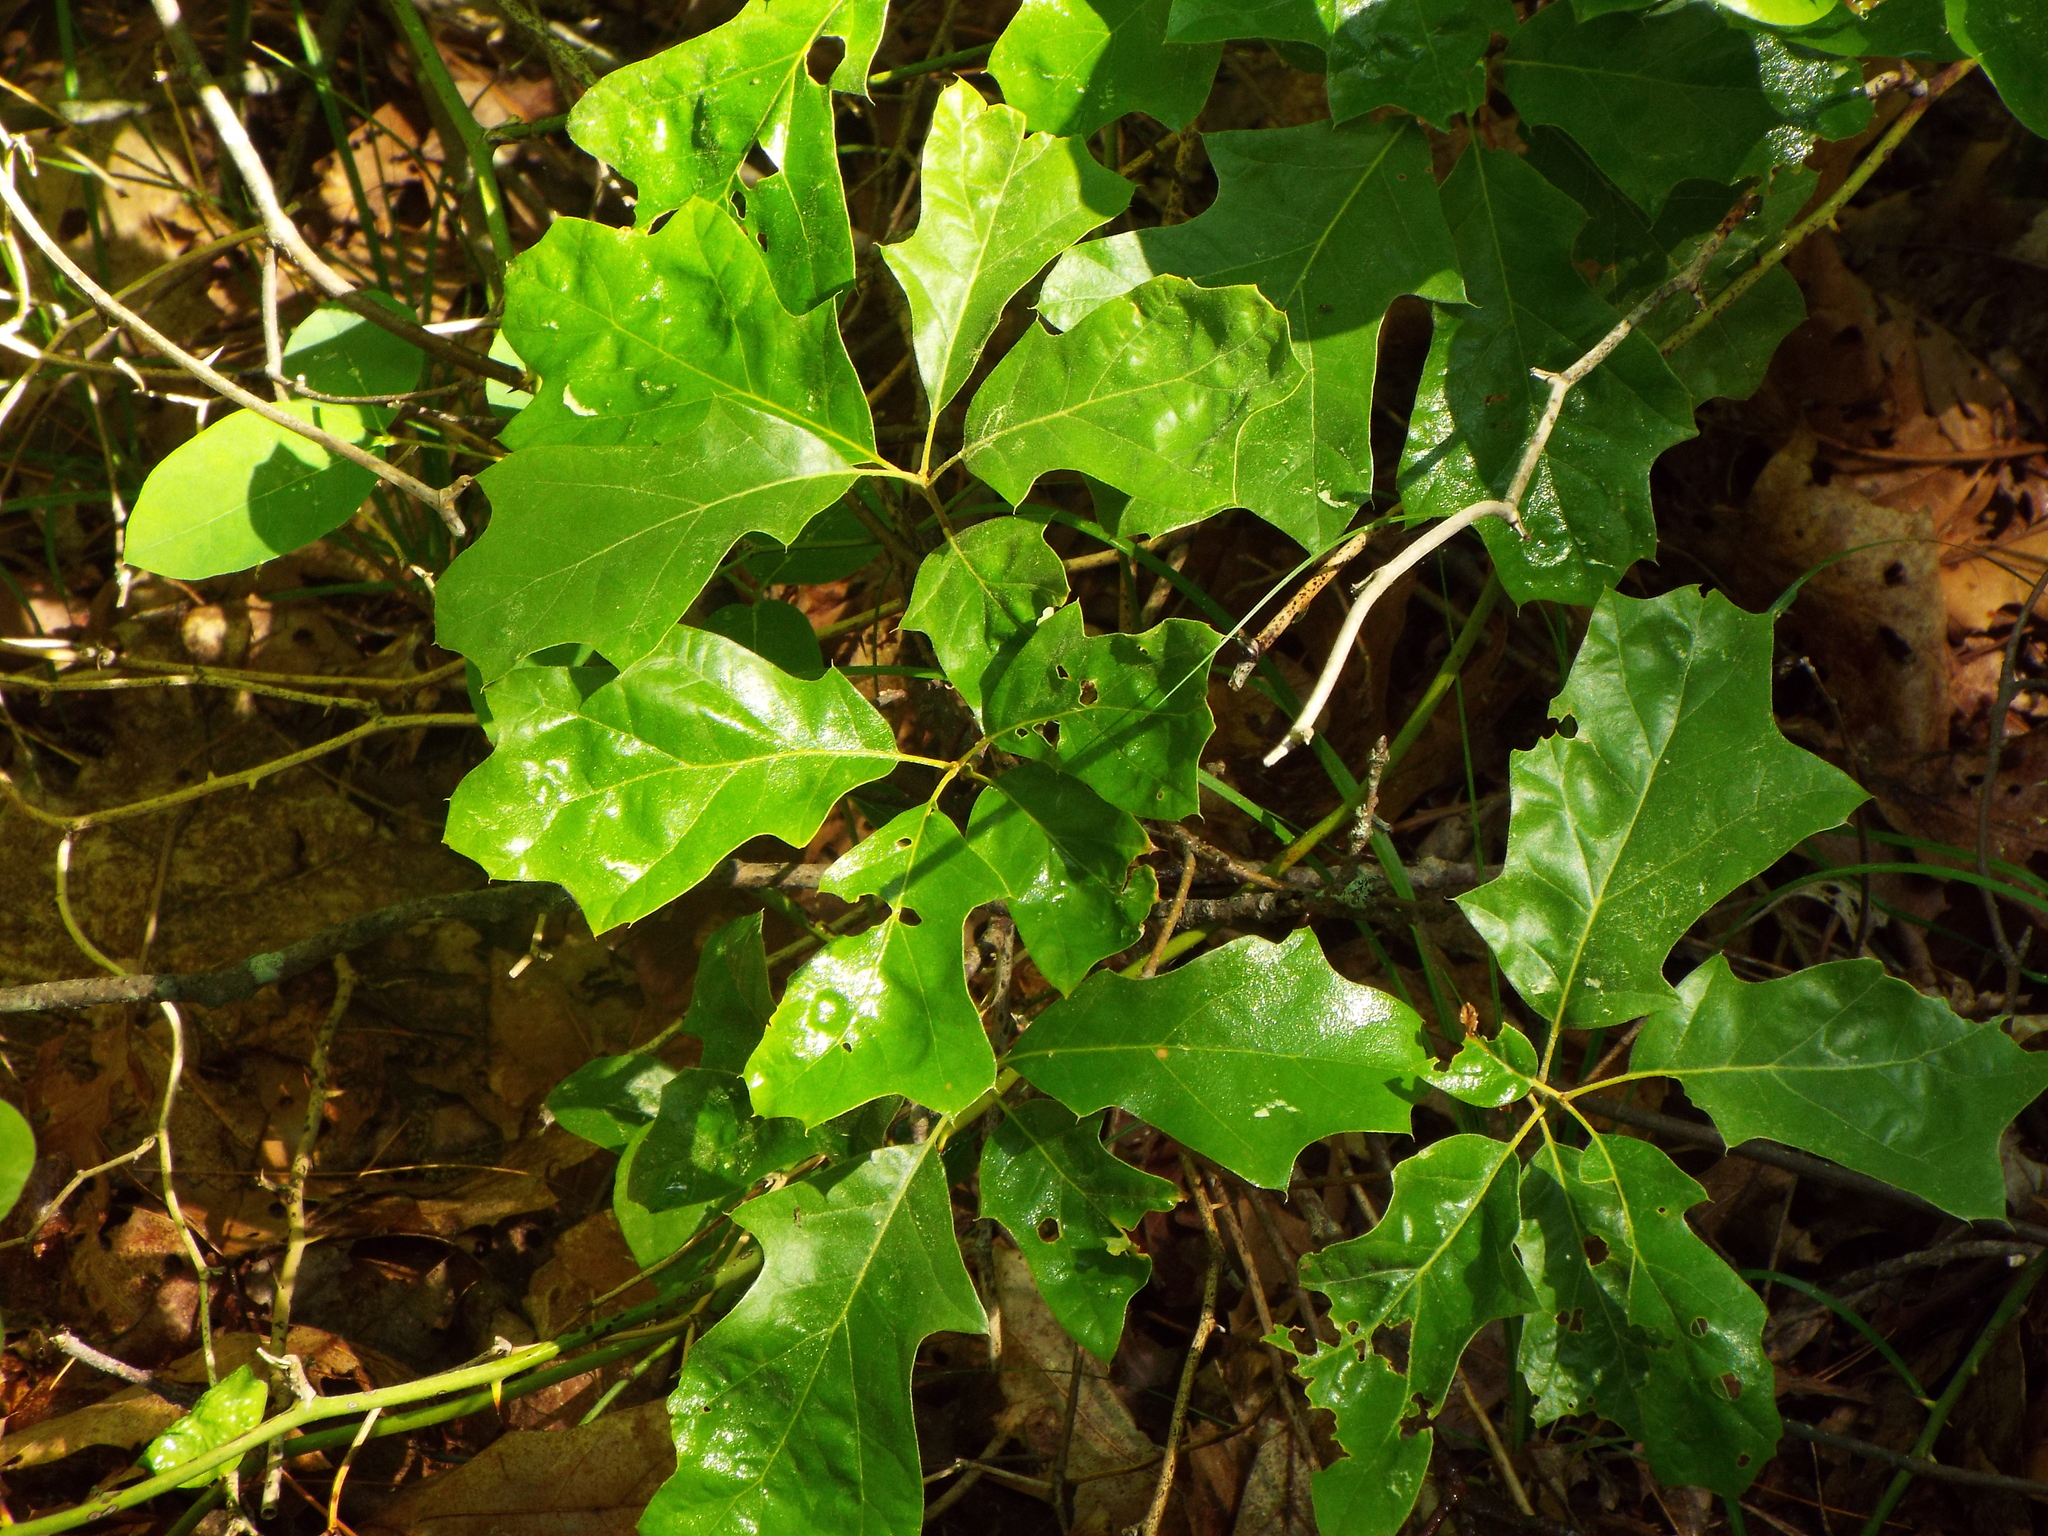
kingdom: Plantae
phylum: Tracheophyta
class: Magnoliopsida
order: Fagales
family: Fagaceae
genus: Quercus
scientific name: Quercus ilicifolia
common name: Bear oak
